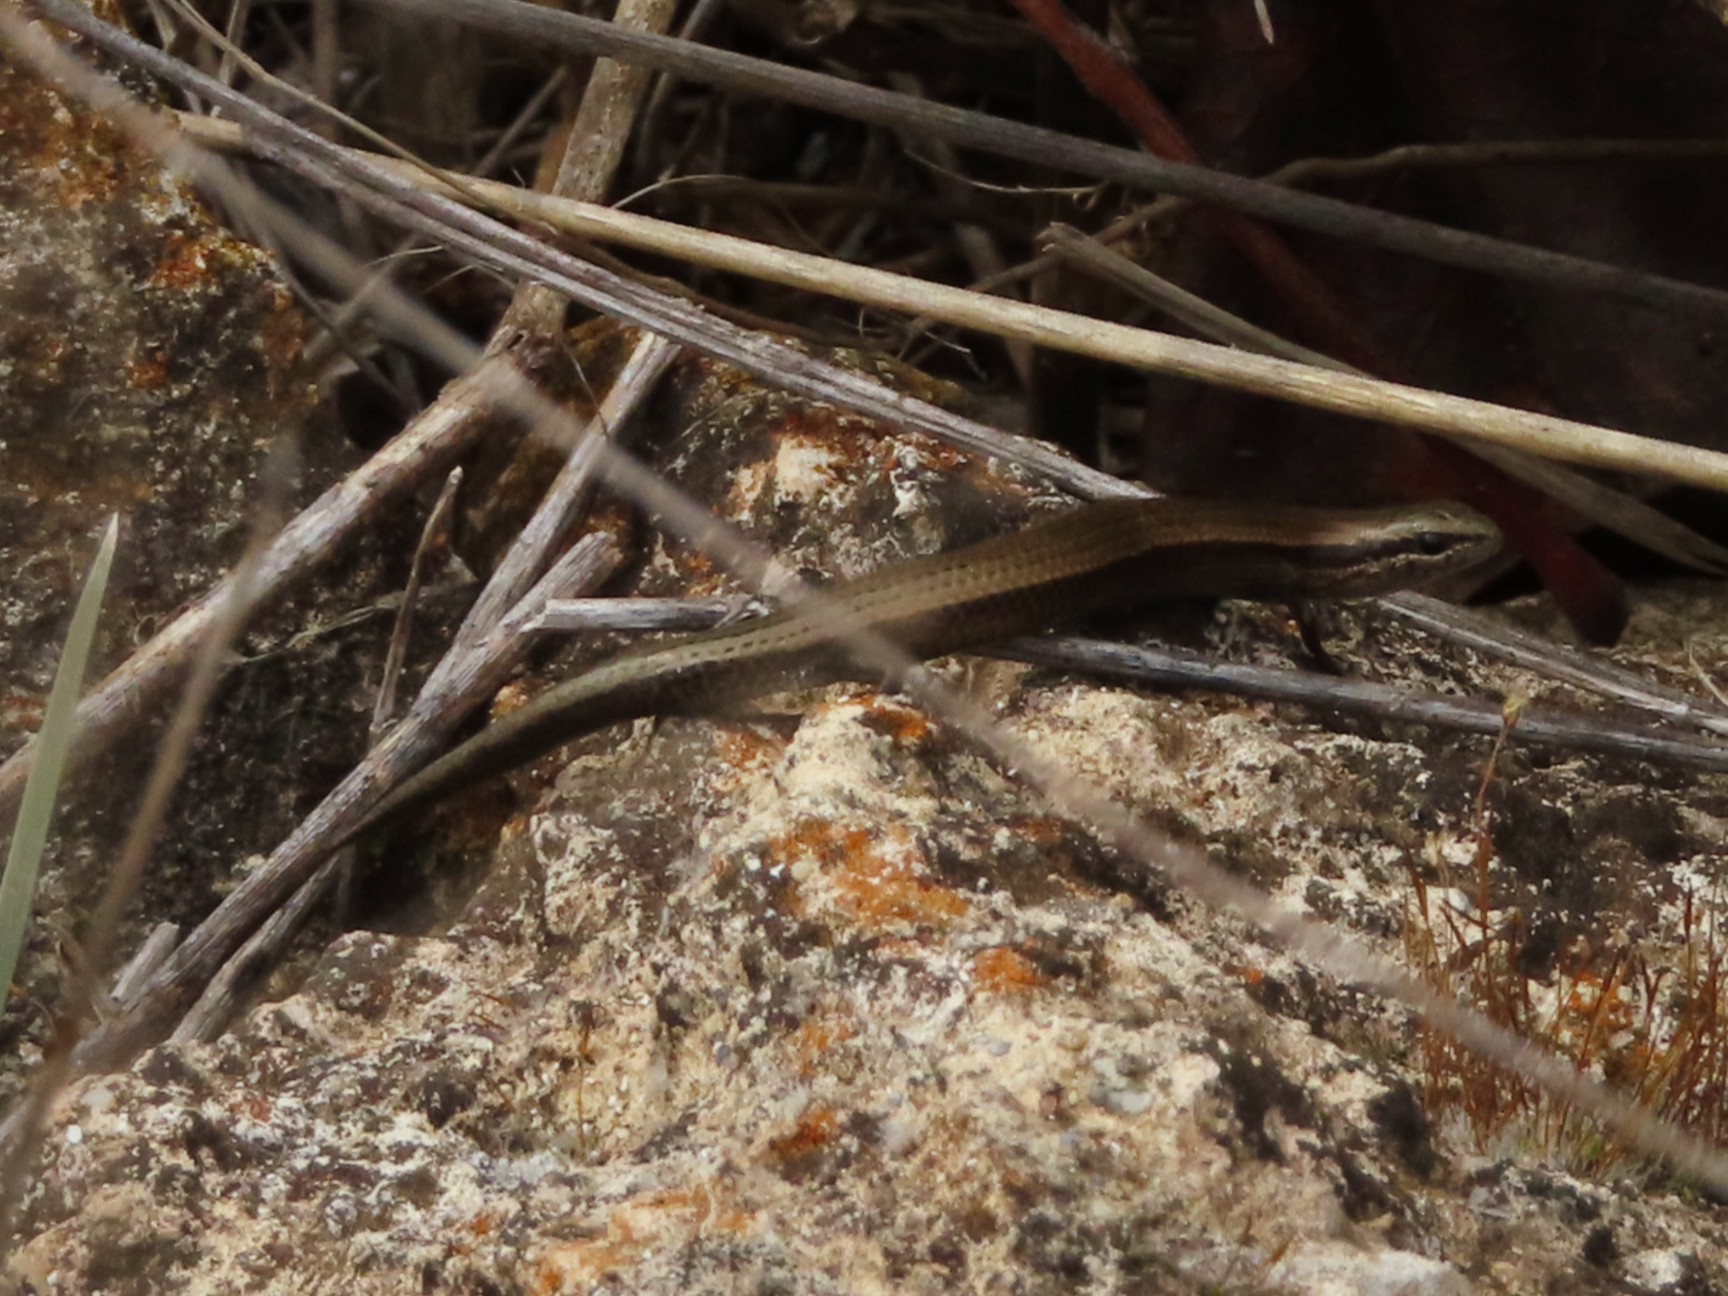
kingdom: Animalia
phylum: Chordata
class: Squamata
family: Scincidae
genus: Ablepharus
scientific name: Ablepharus kitaibelii
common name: Juniper skink
